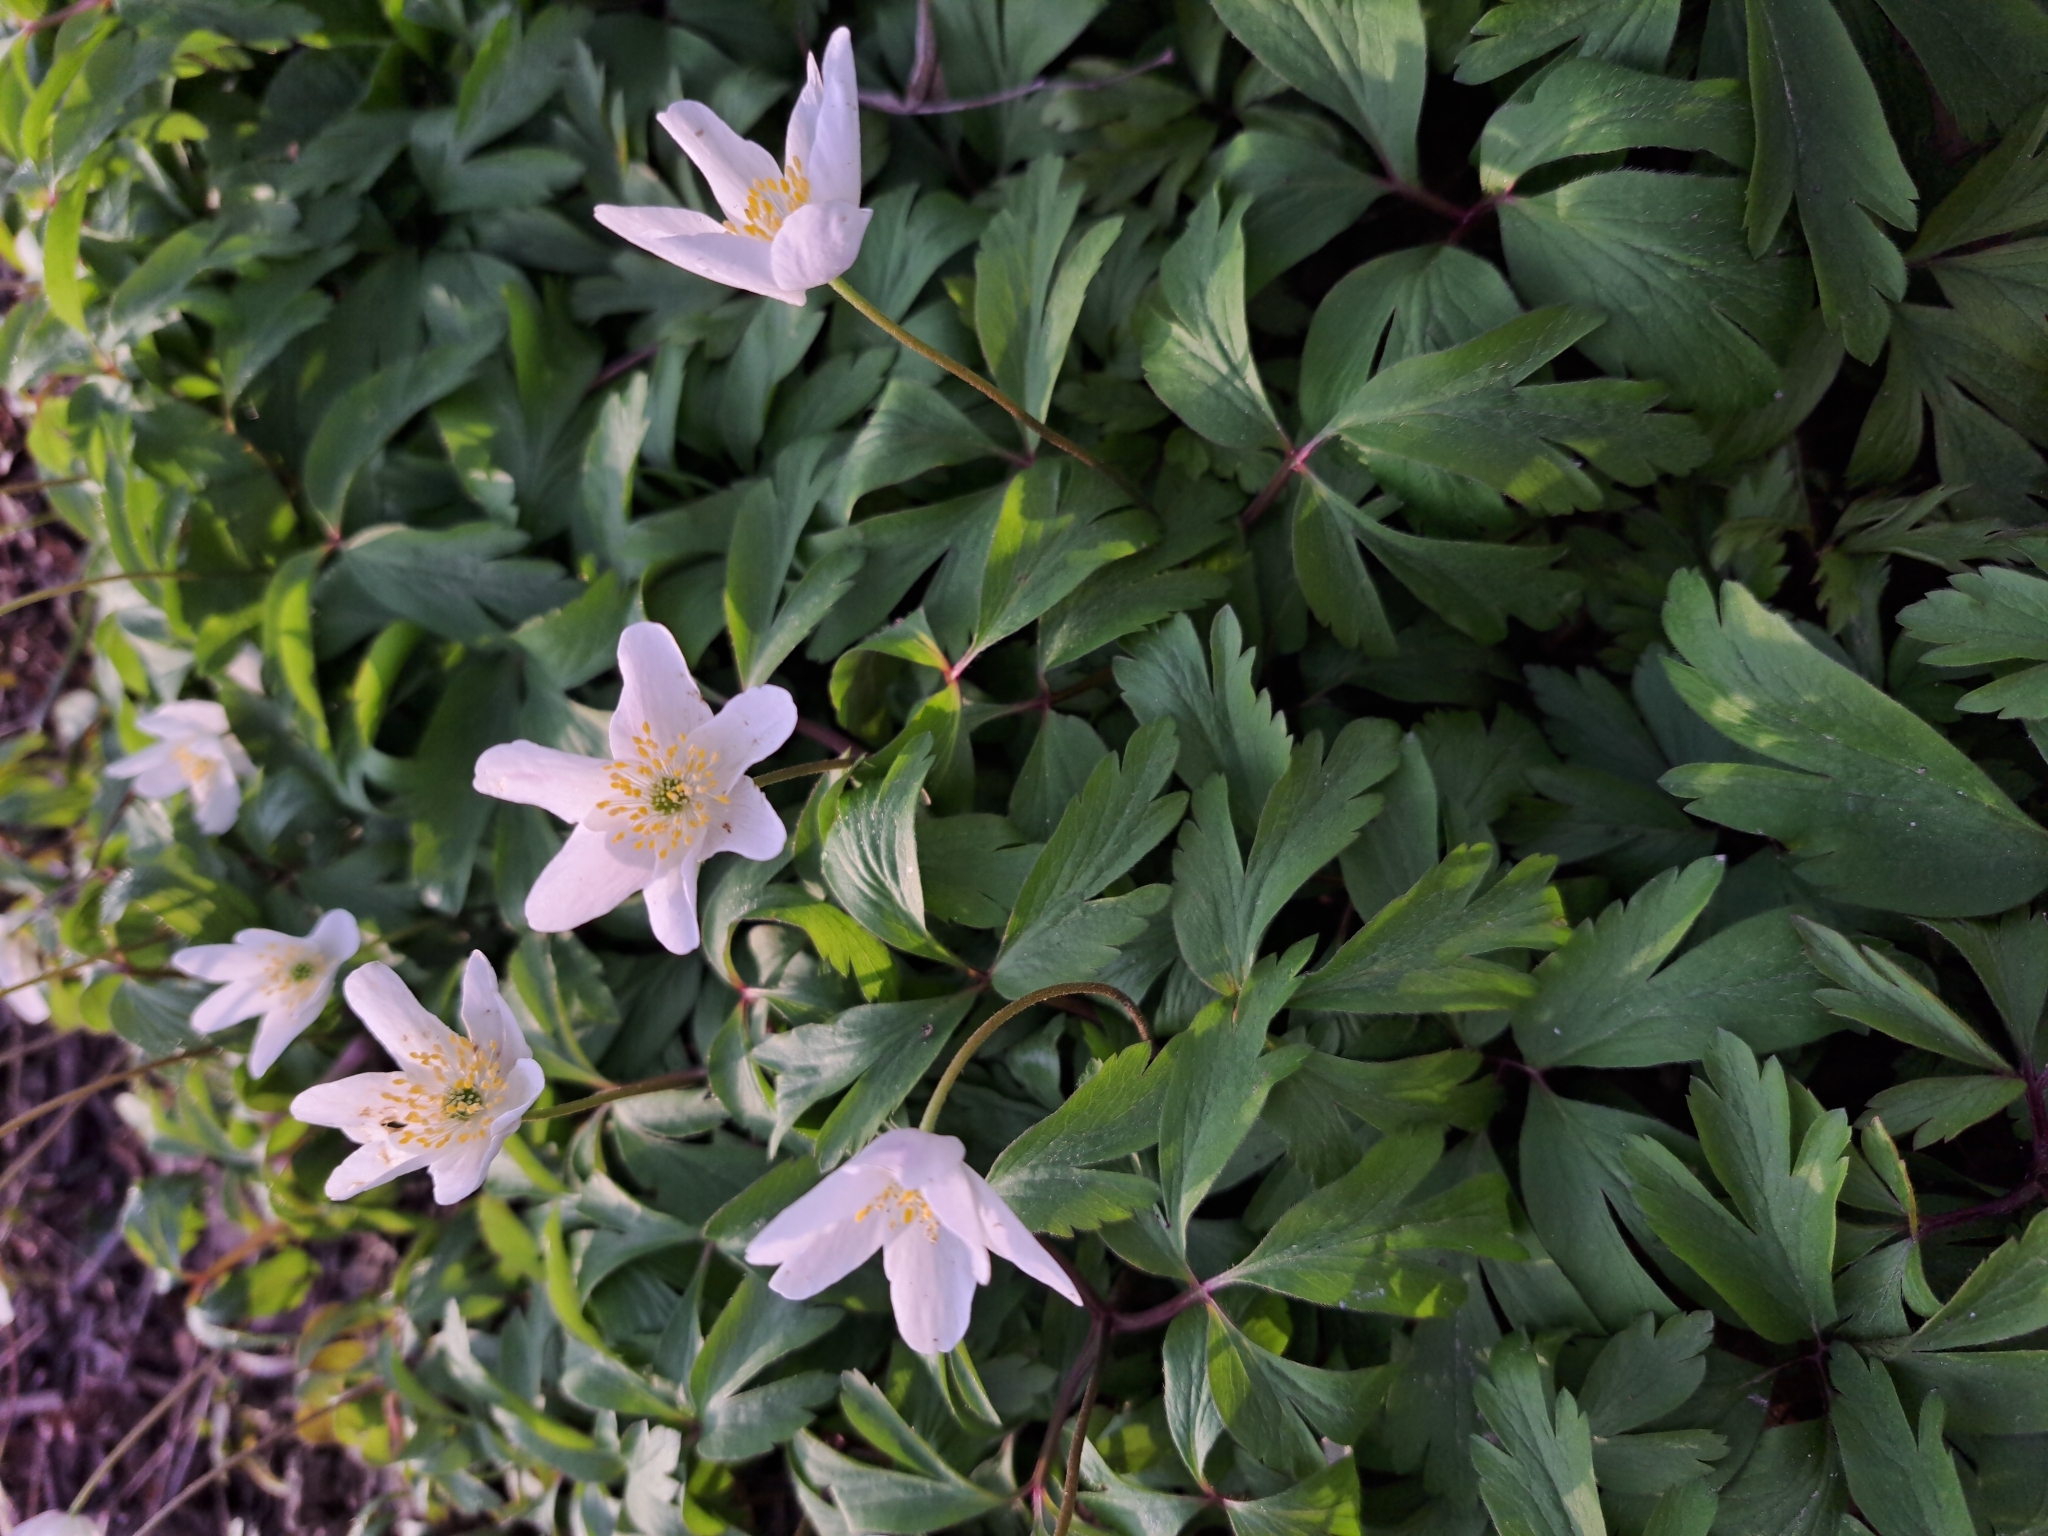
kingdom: Plantae
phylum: Tracheophyta
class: Magnoliopsida
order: Ranunculales
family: Ranunculaceae
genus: Anemone
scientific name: Anemone nemorosa
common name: Wood anemone
